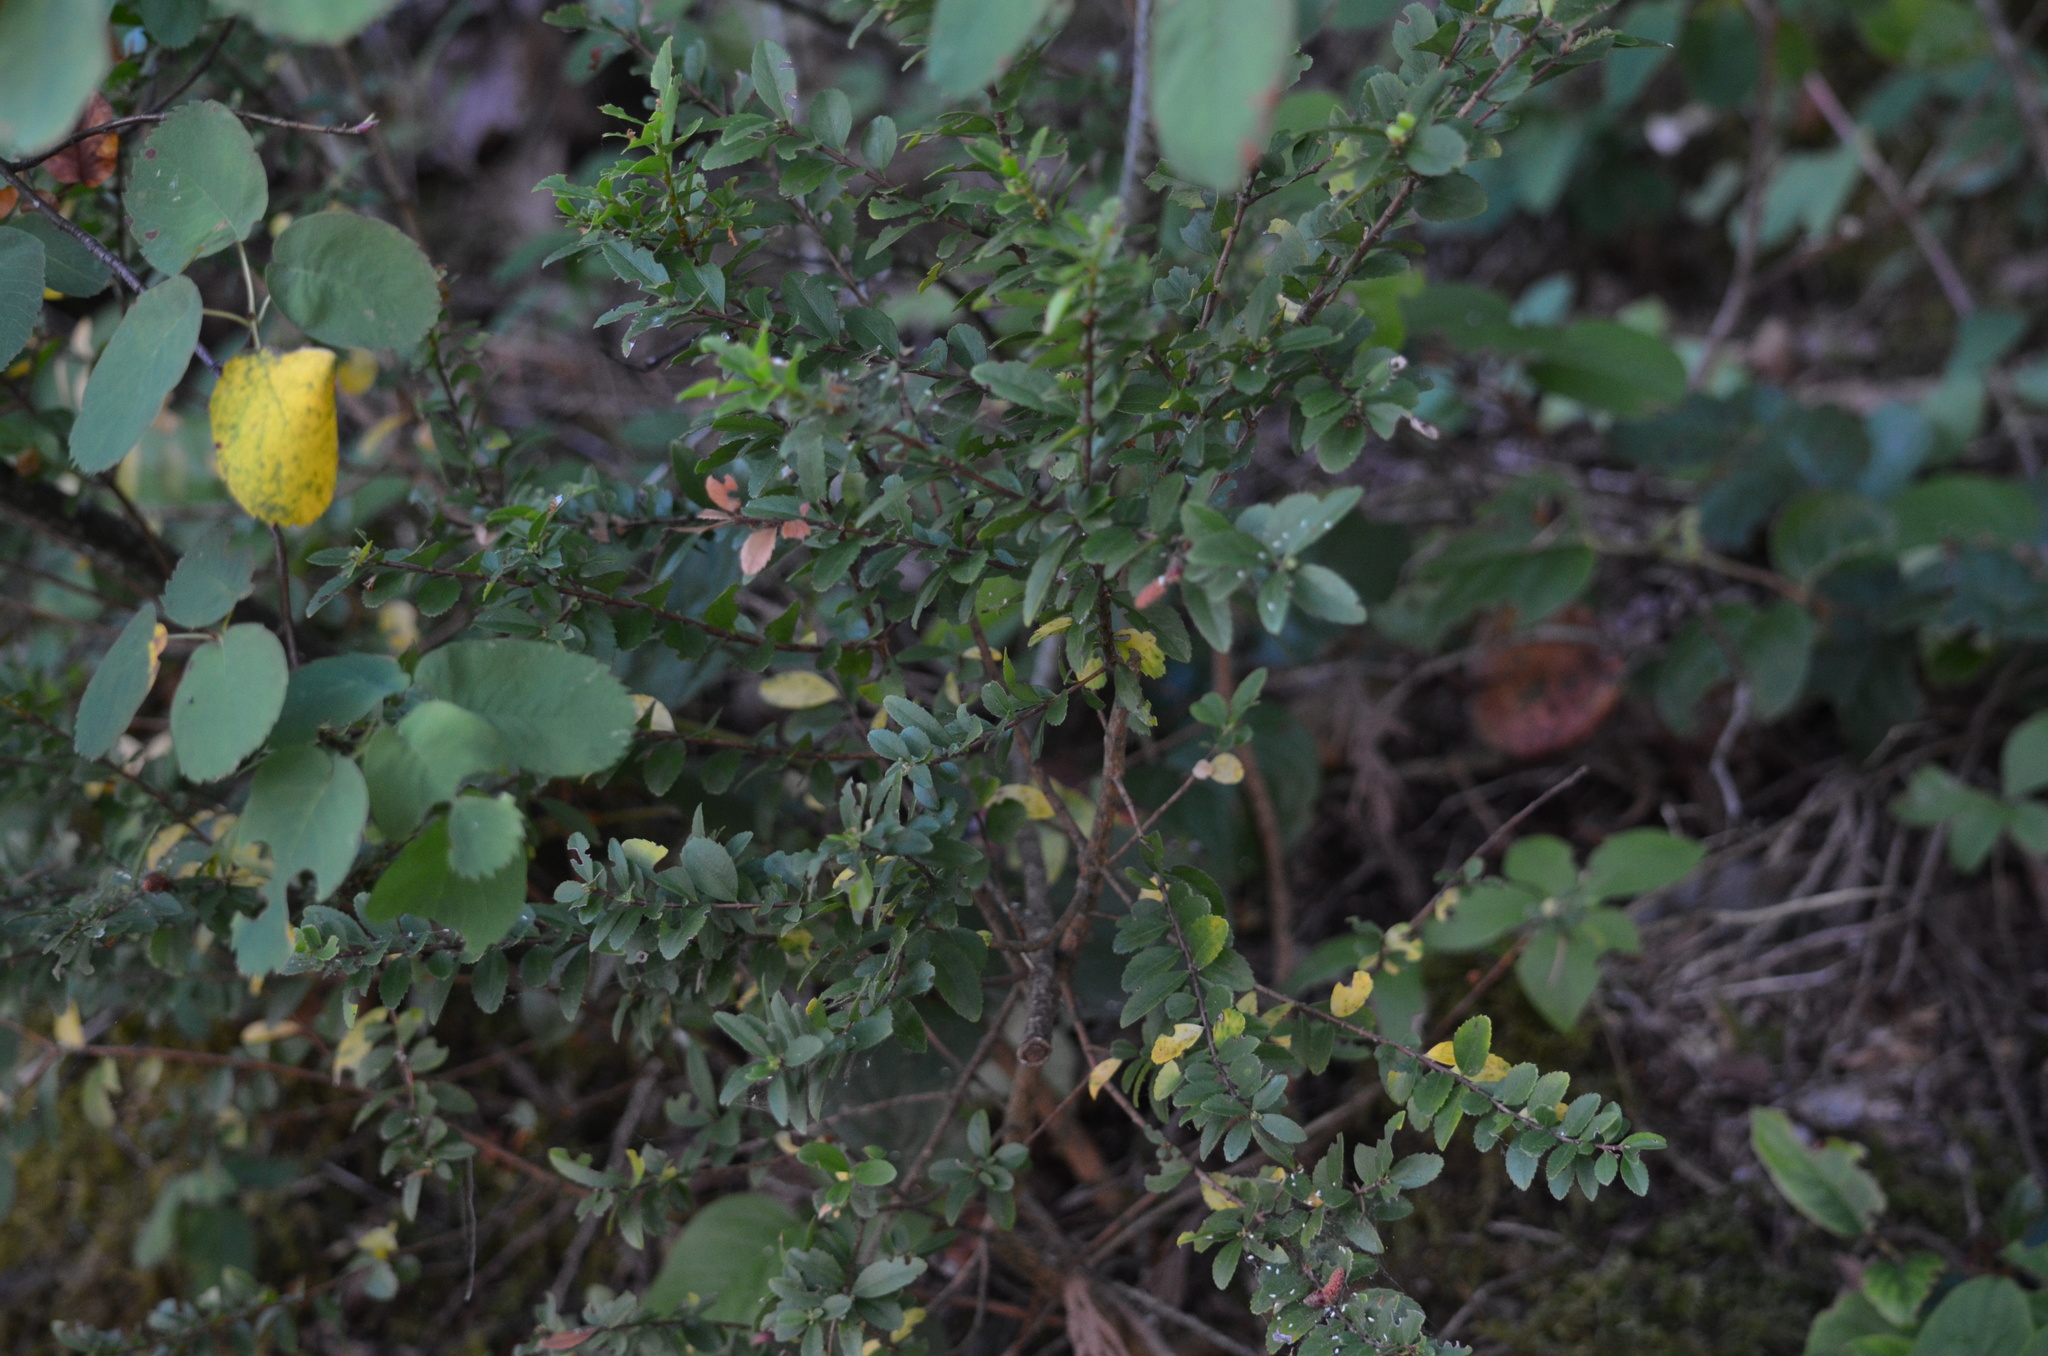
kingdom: Plantae
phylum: Tracheophyta
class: Magnoliopsida
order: Celastrales
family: Celastraceae
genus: Paxistima
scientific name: Paxistima myrsinites
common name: Mountain-lover
